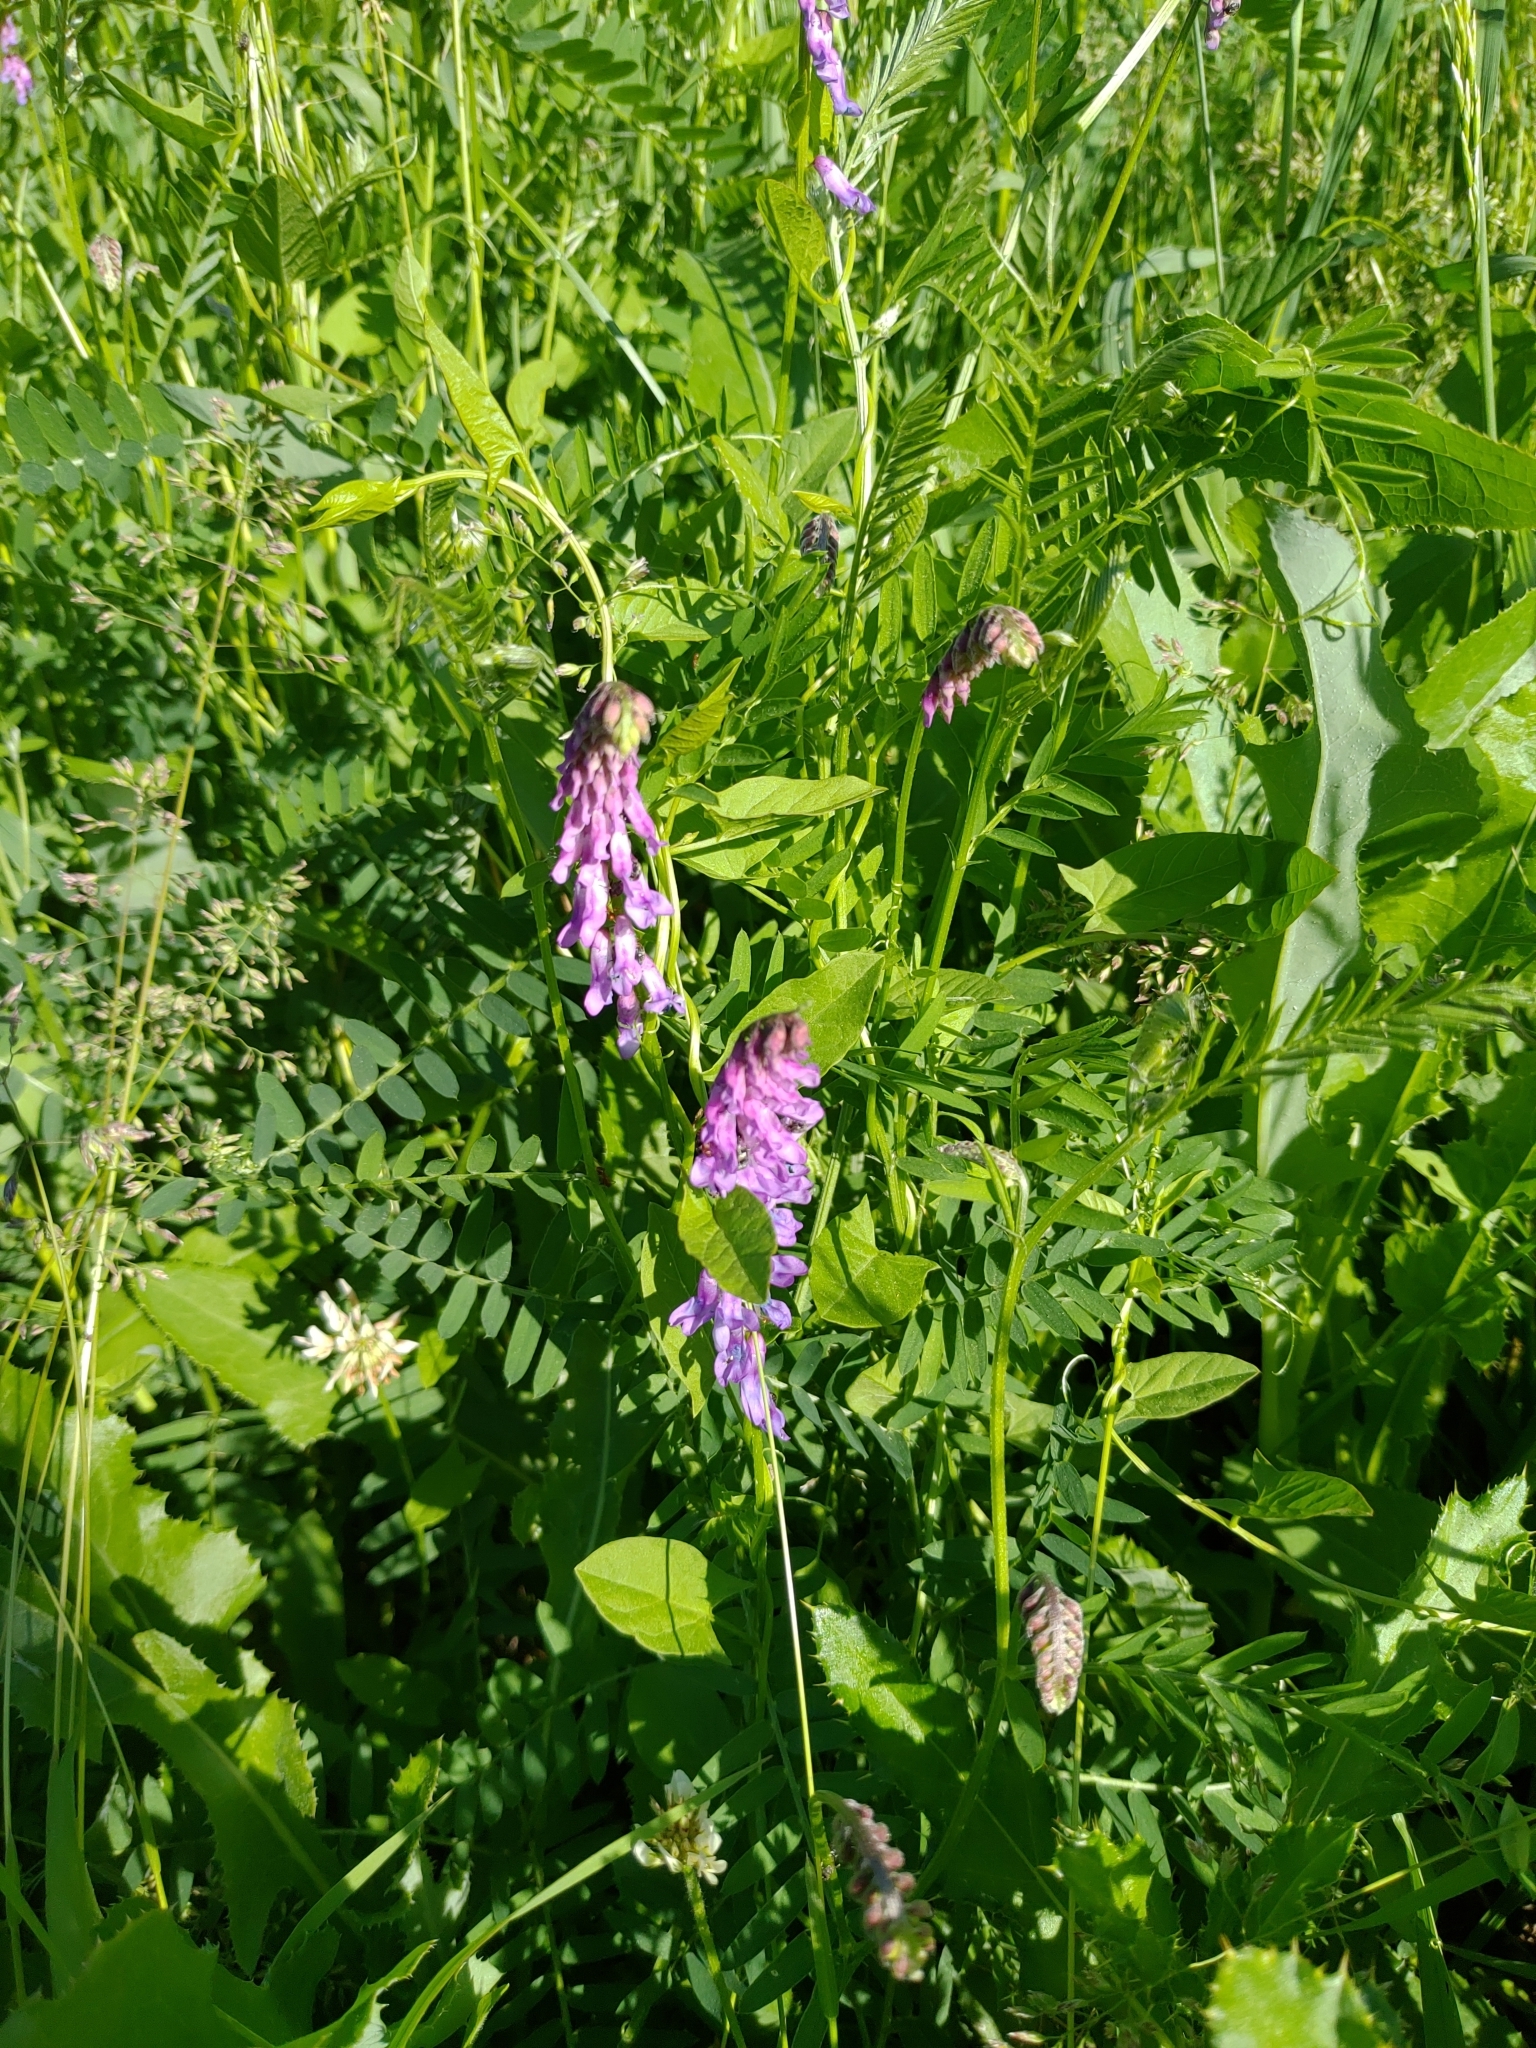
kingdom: Plantae
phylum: Tracheophyta
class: Magnoliopsida
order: Fabales
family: Fabaceae
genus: Vicia
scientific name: Vicia cracca
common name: Bird vetch
